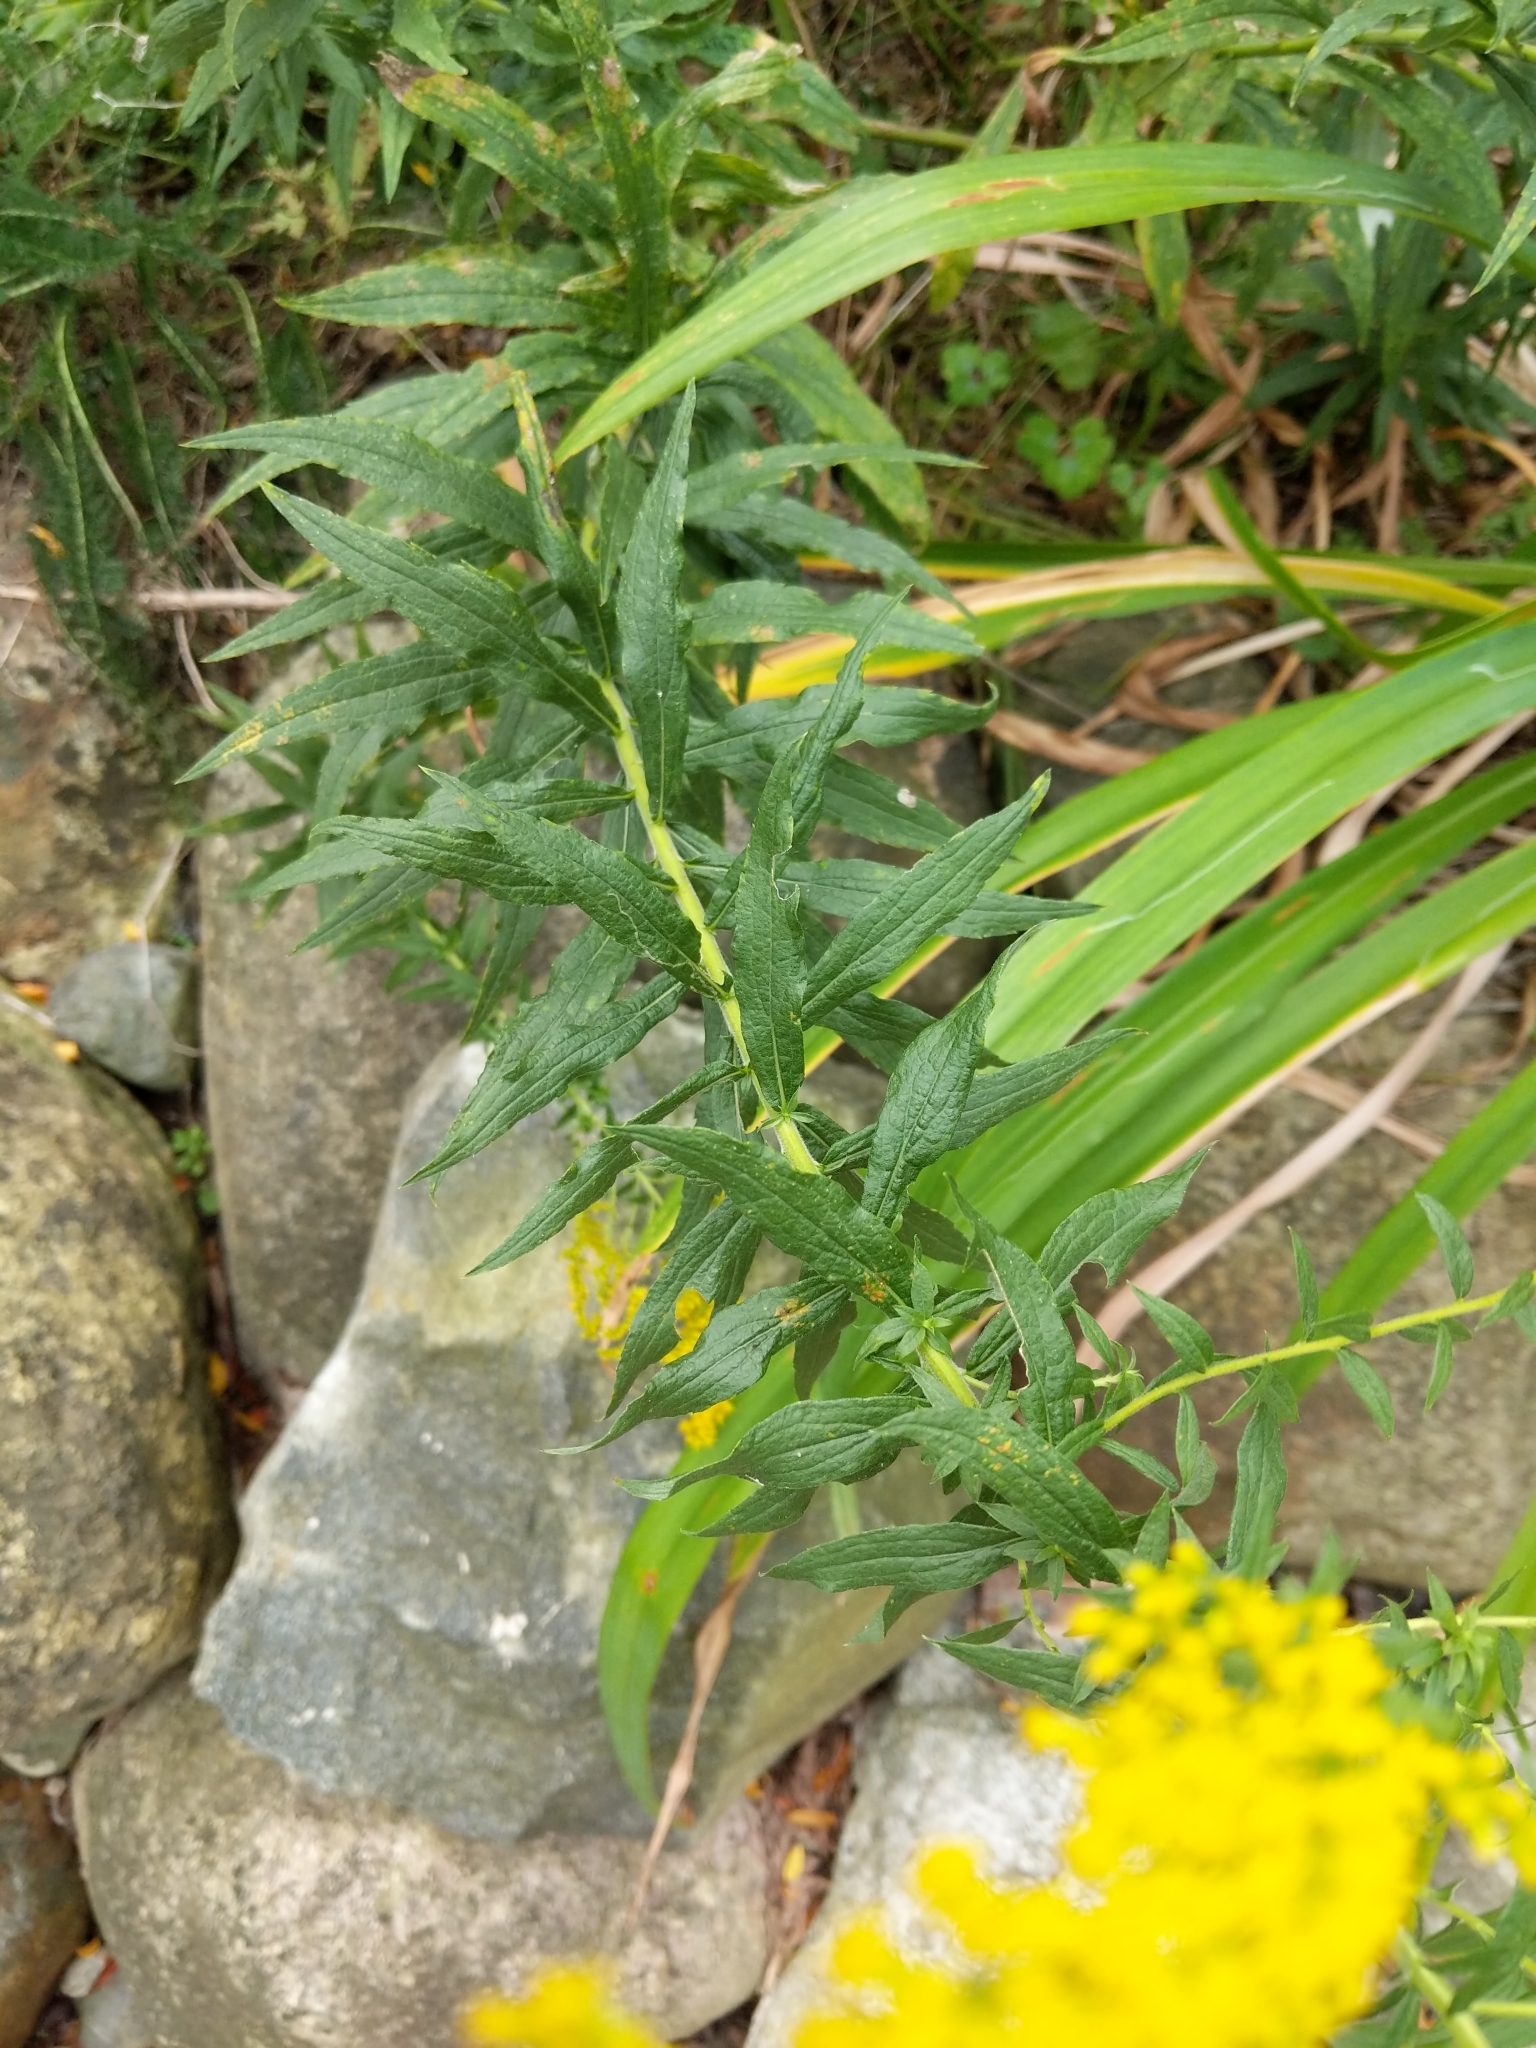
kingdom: Plantae
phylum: Tracheophyta
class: Magnoliopsida
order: Asterales
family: Asteraceae
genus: Solidago
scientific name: Solidago canadensis
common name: Canada goldenrod
